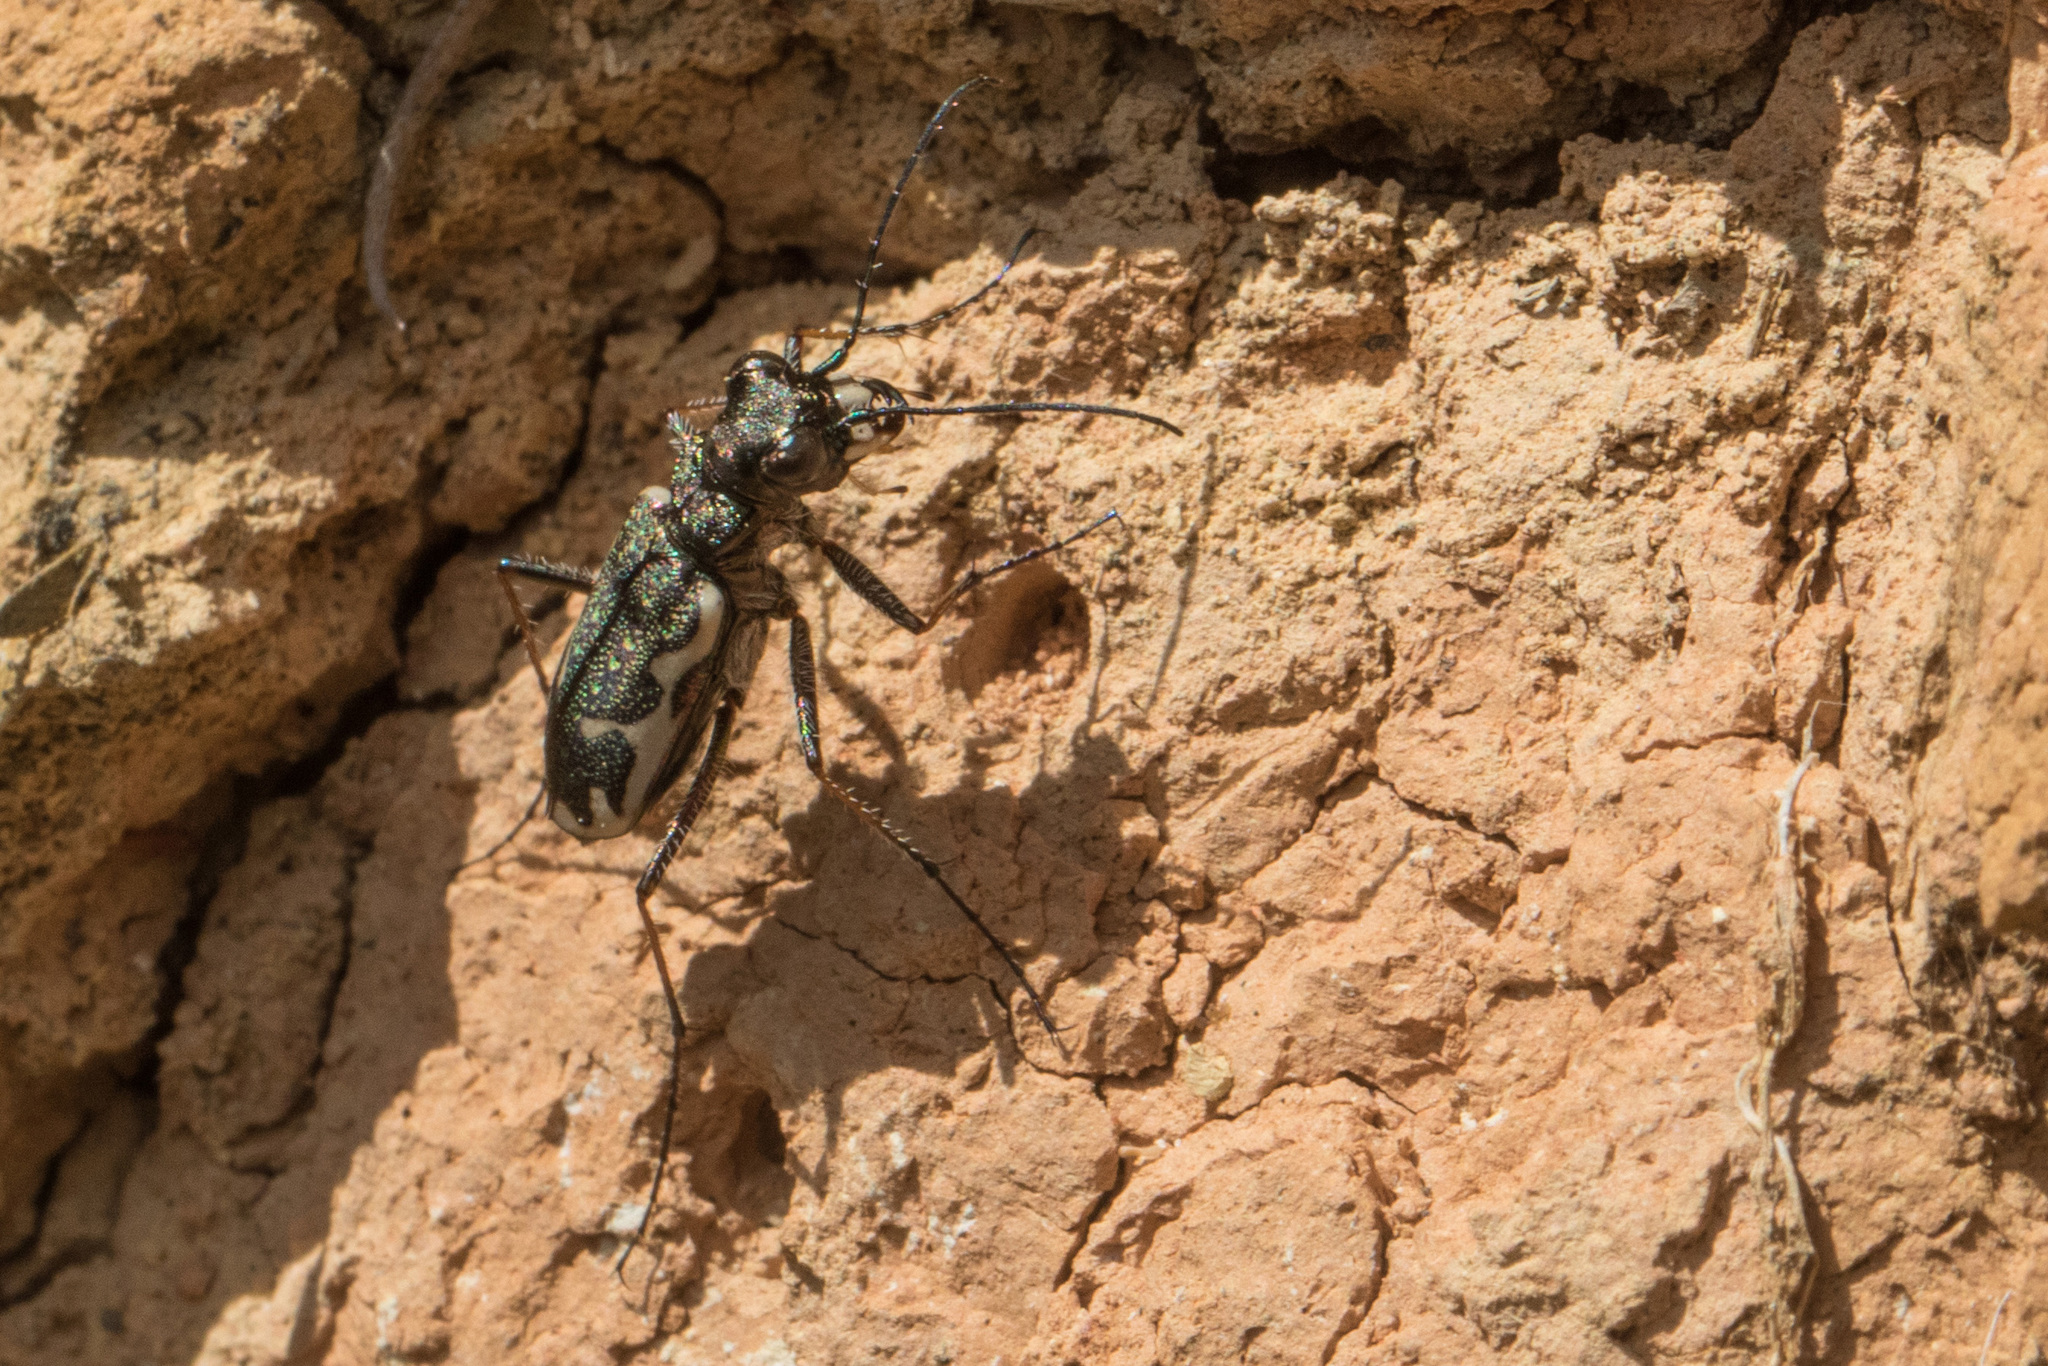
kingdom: Animalia
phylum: Arthropoda
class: Insecta
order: Coleoptera
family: Carabidae
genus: Neocicindela
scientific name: Neocicindela tuberculata
